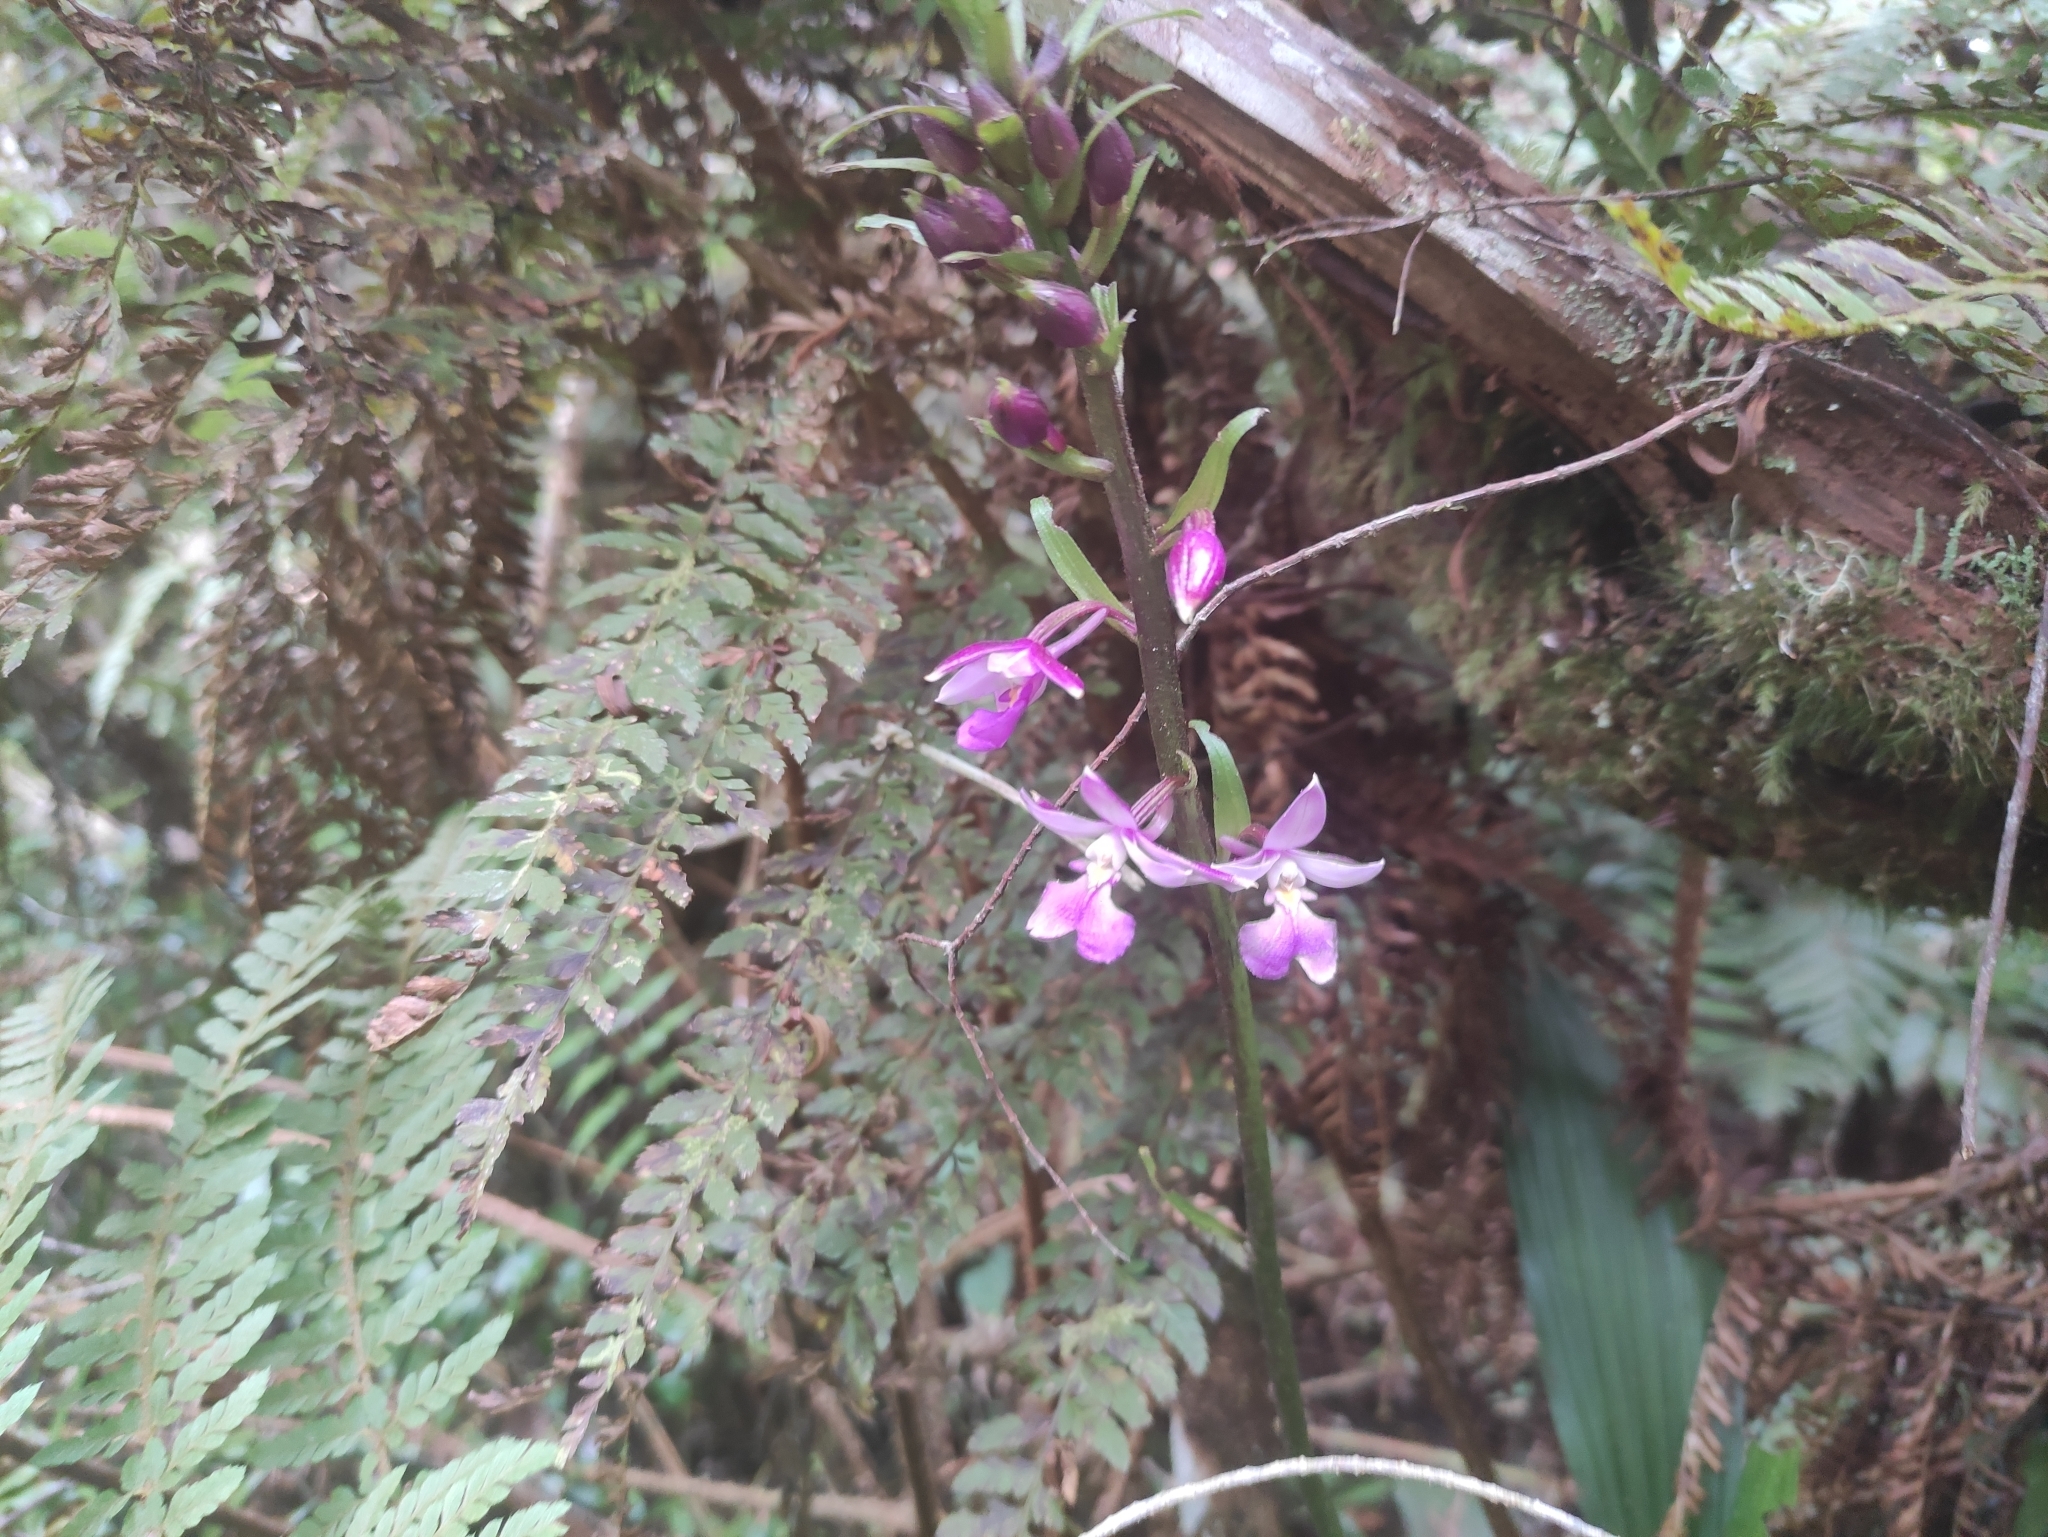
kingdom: Plantae
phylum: Tracheophyta
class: Liliopsida
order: Asparagales
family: Orchidaceae
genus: Calanthe
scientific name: Calanthe sylvatica
